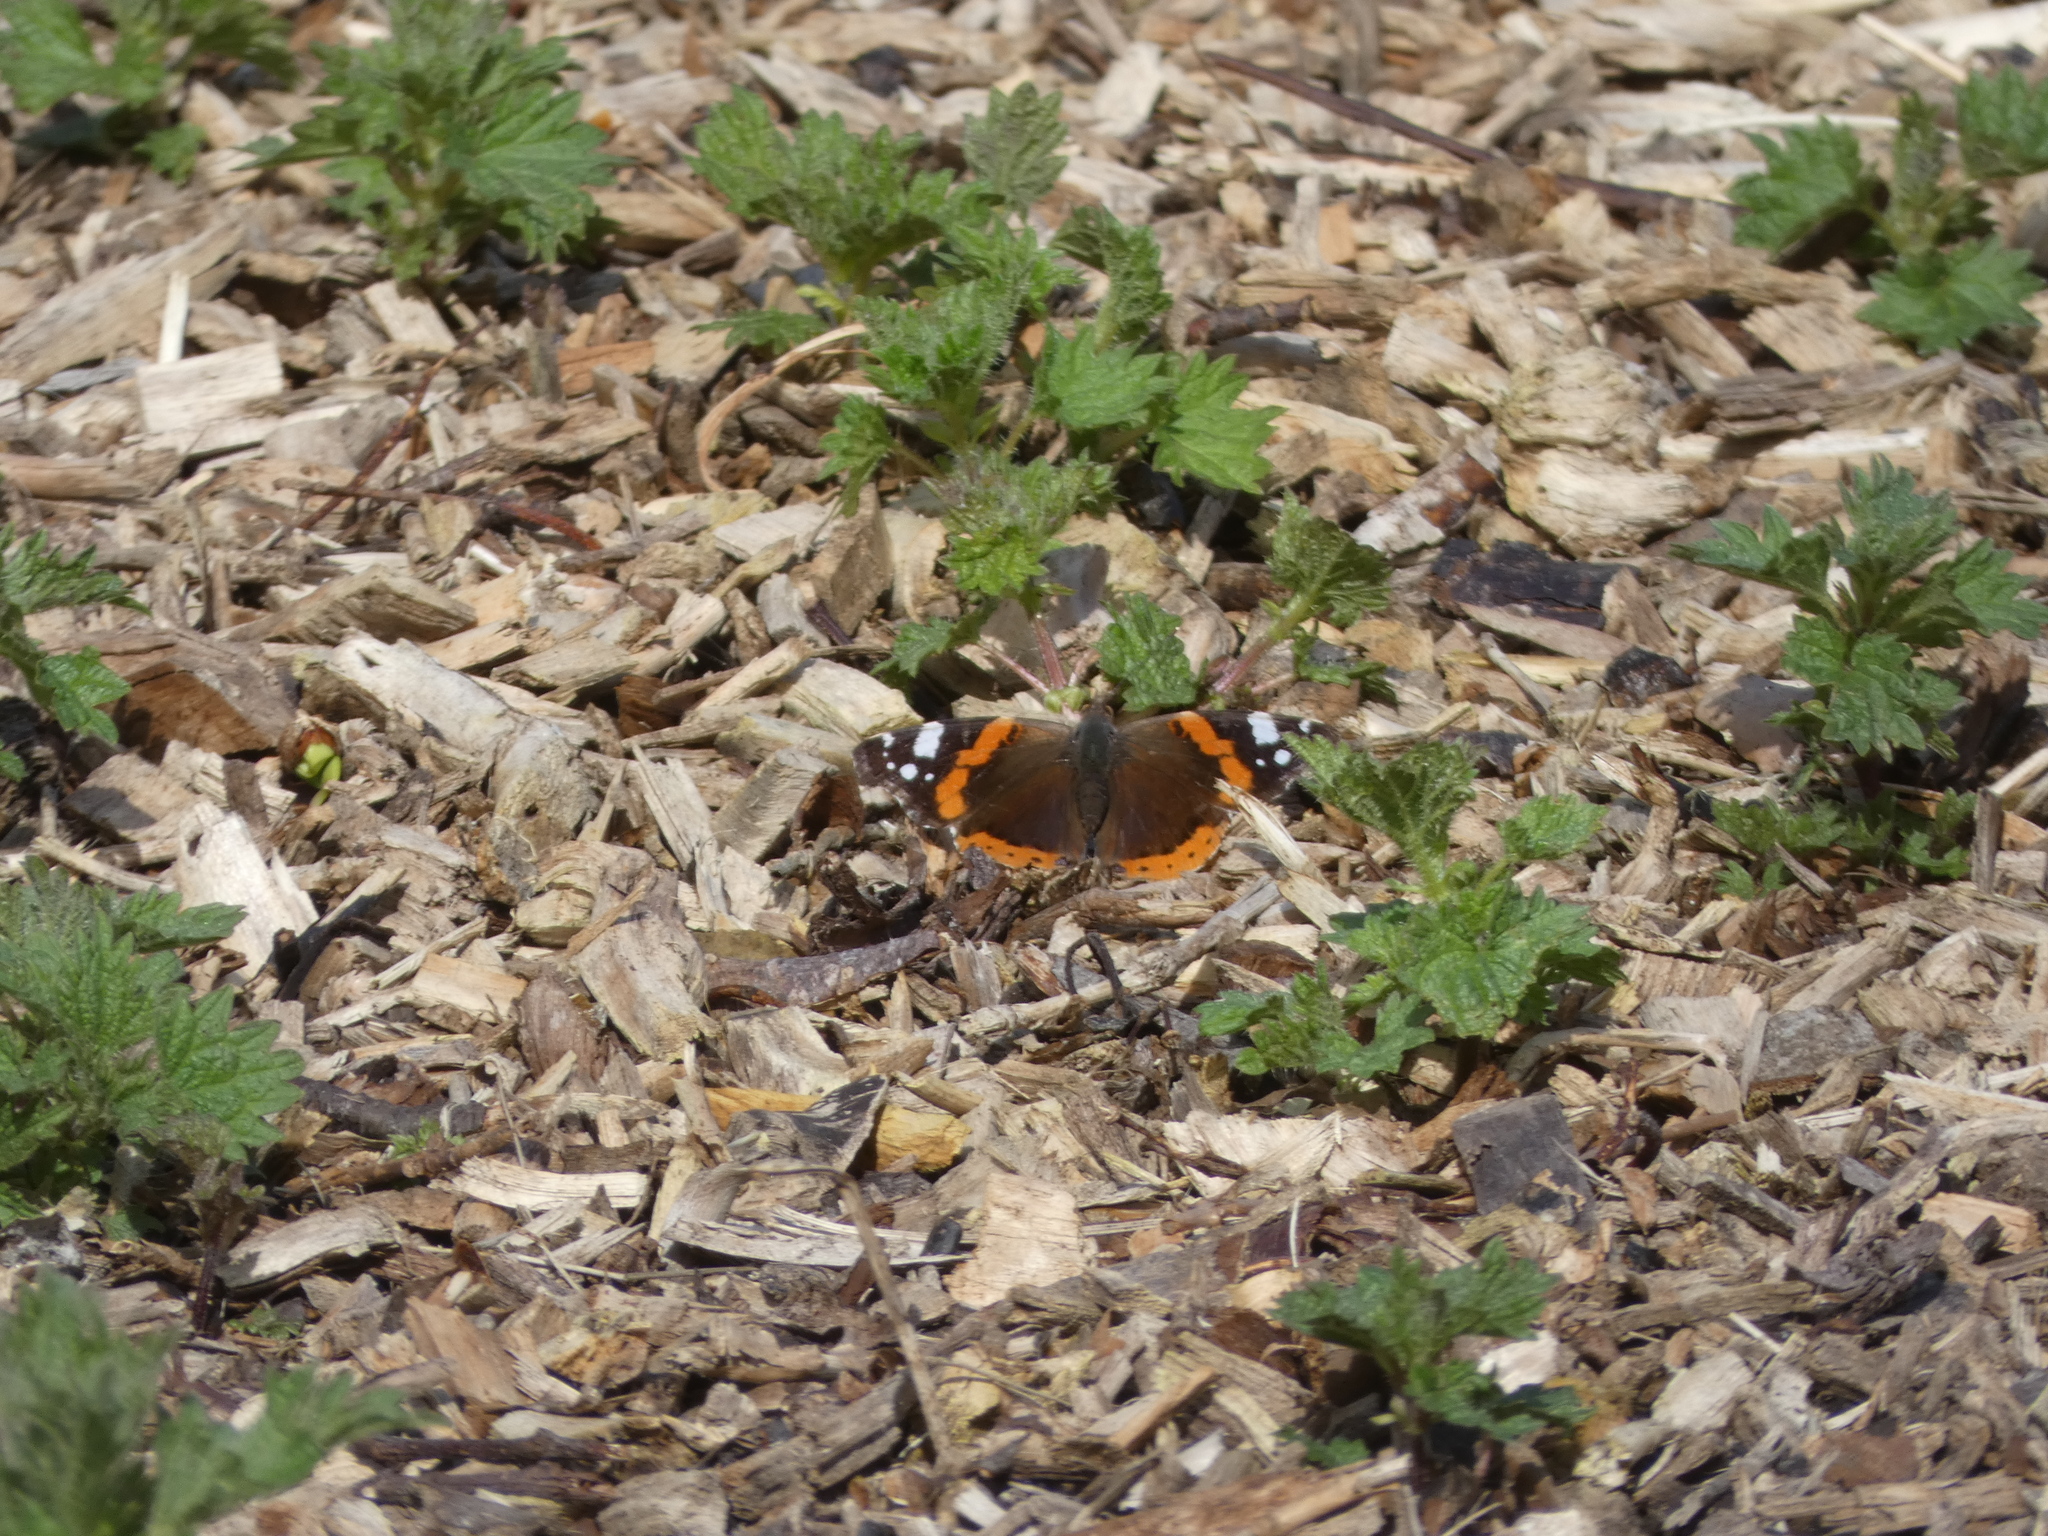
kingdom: Animalia
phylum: Arthropoda
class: Insecta
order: Lepidoptera
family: Nymphalidae
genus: Vanessa
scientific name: Vanessa atalanta
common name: Red admiral
